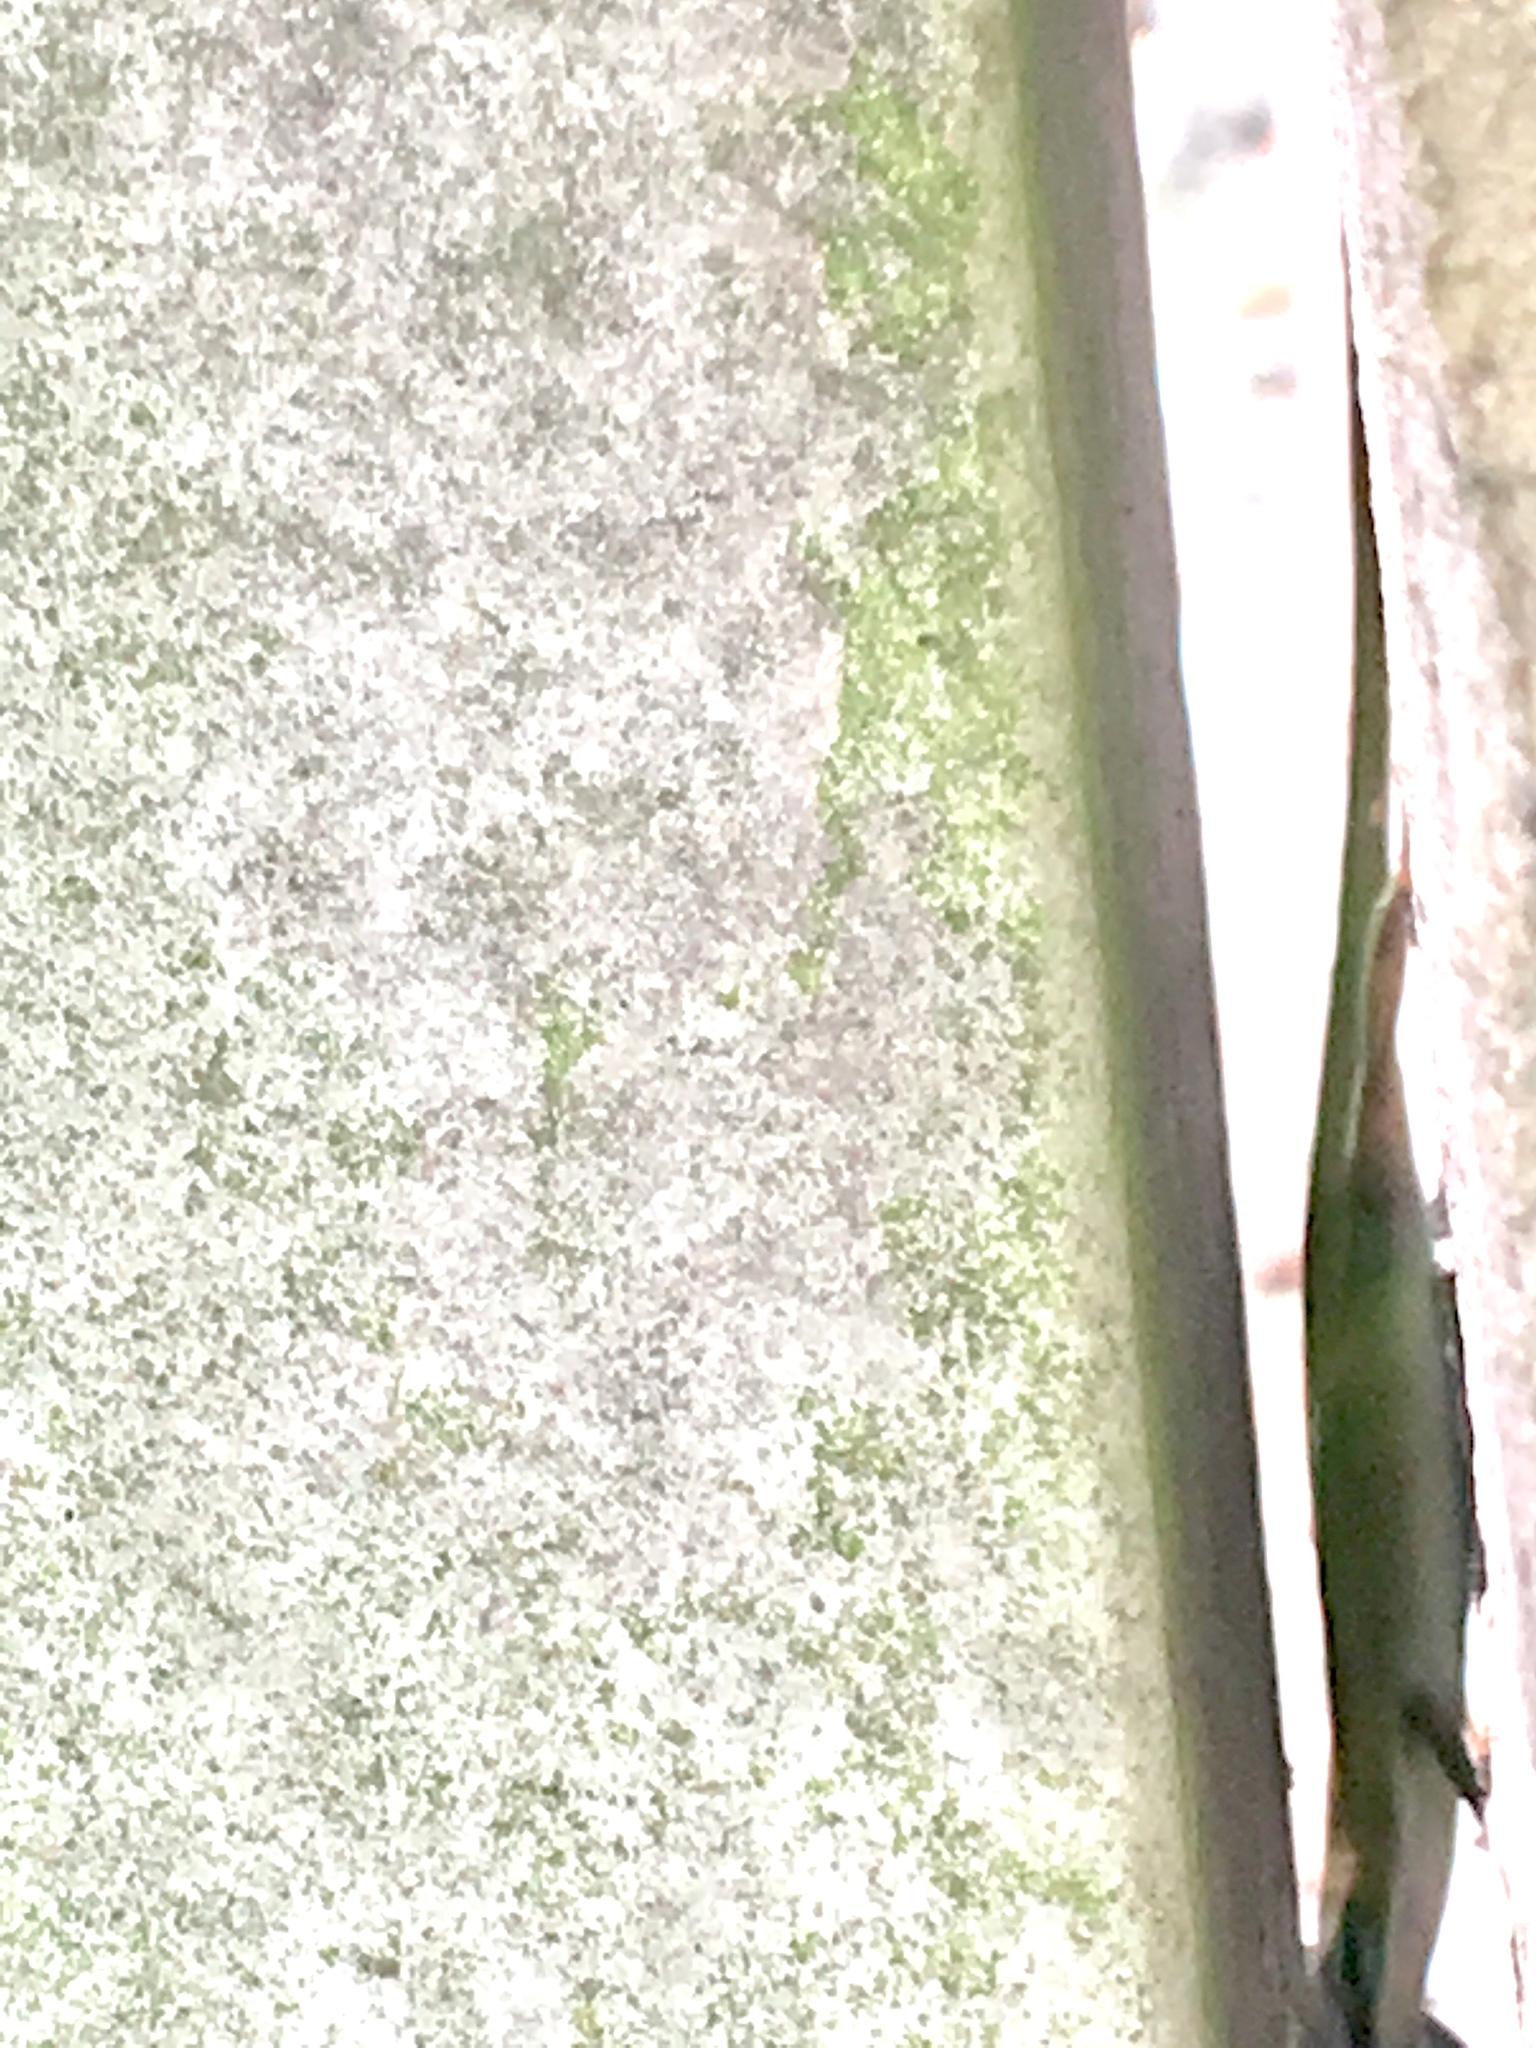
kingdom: Animalia
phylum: Chordata
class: Squamata
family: Dactyloidae
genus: Anolis
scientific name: Anolis carolinensis
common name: Green anole
